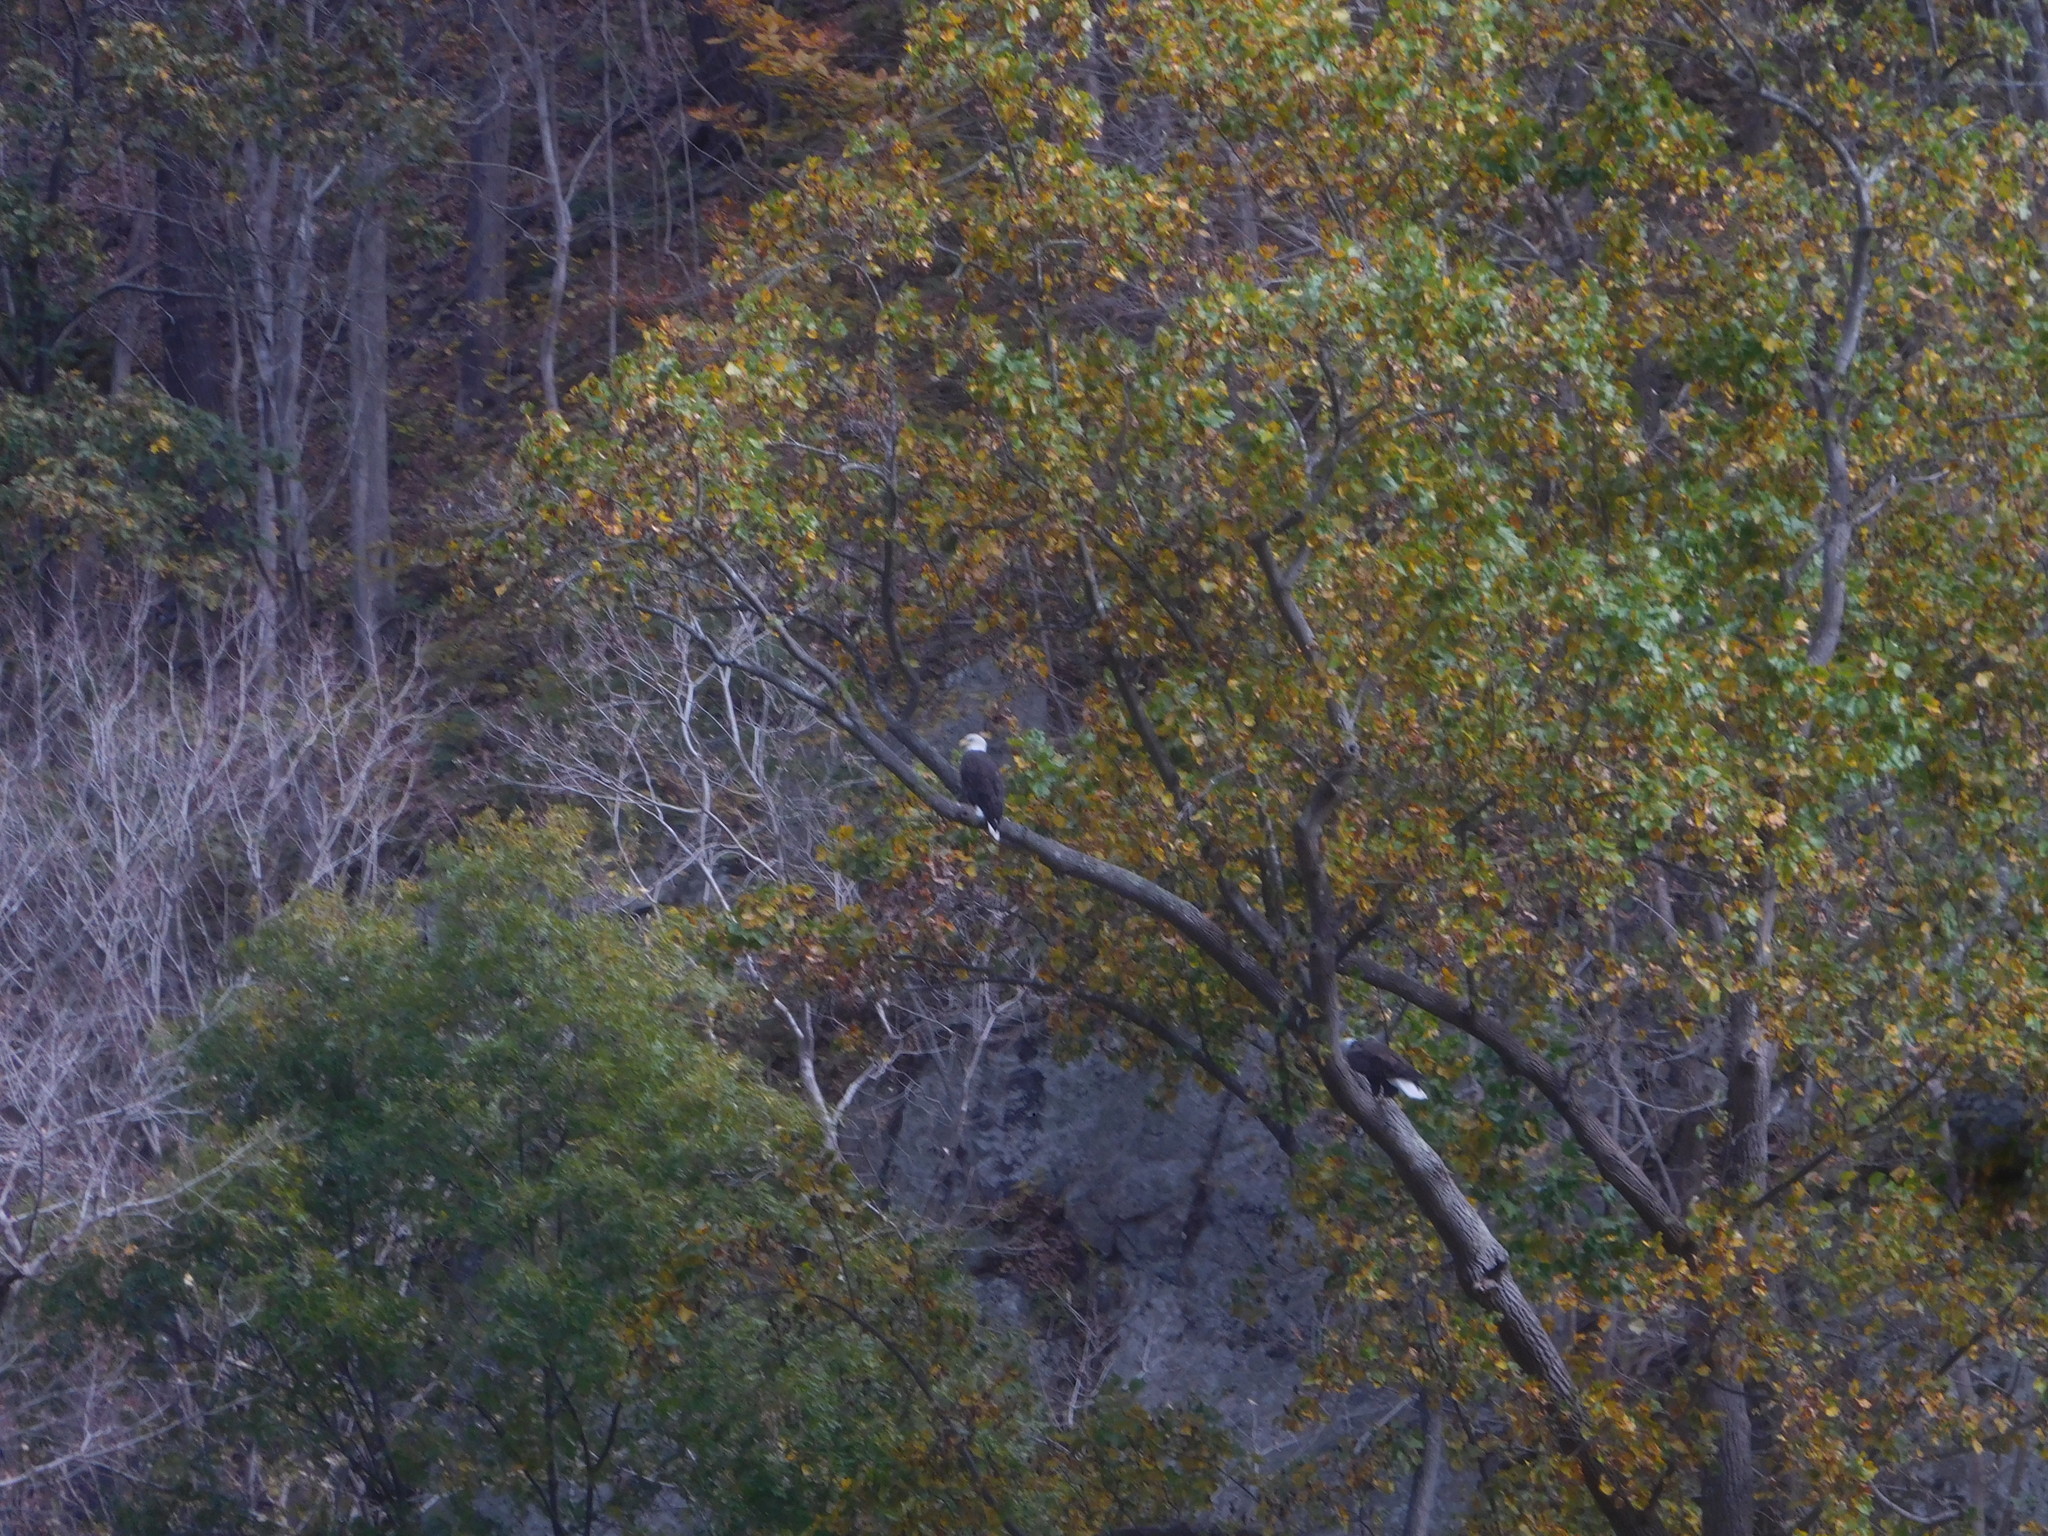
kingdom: Animalia
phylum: Chordata
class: Aves
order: Accipitriformes
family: Accipitridae
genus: Haliaeetus
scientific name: Haliaeetus leucocephalus
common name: Bald eagle
